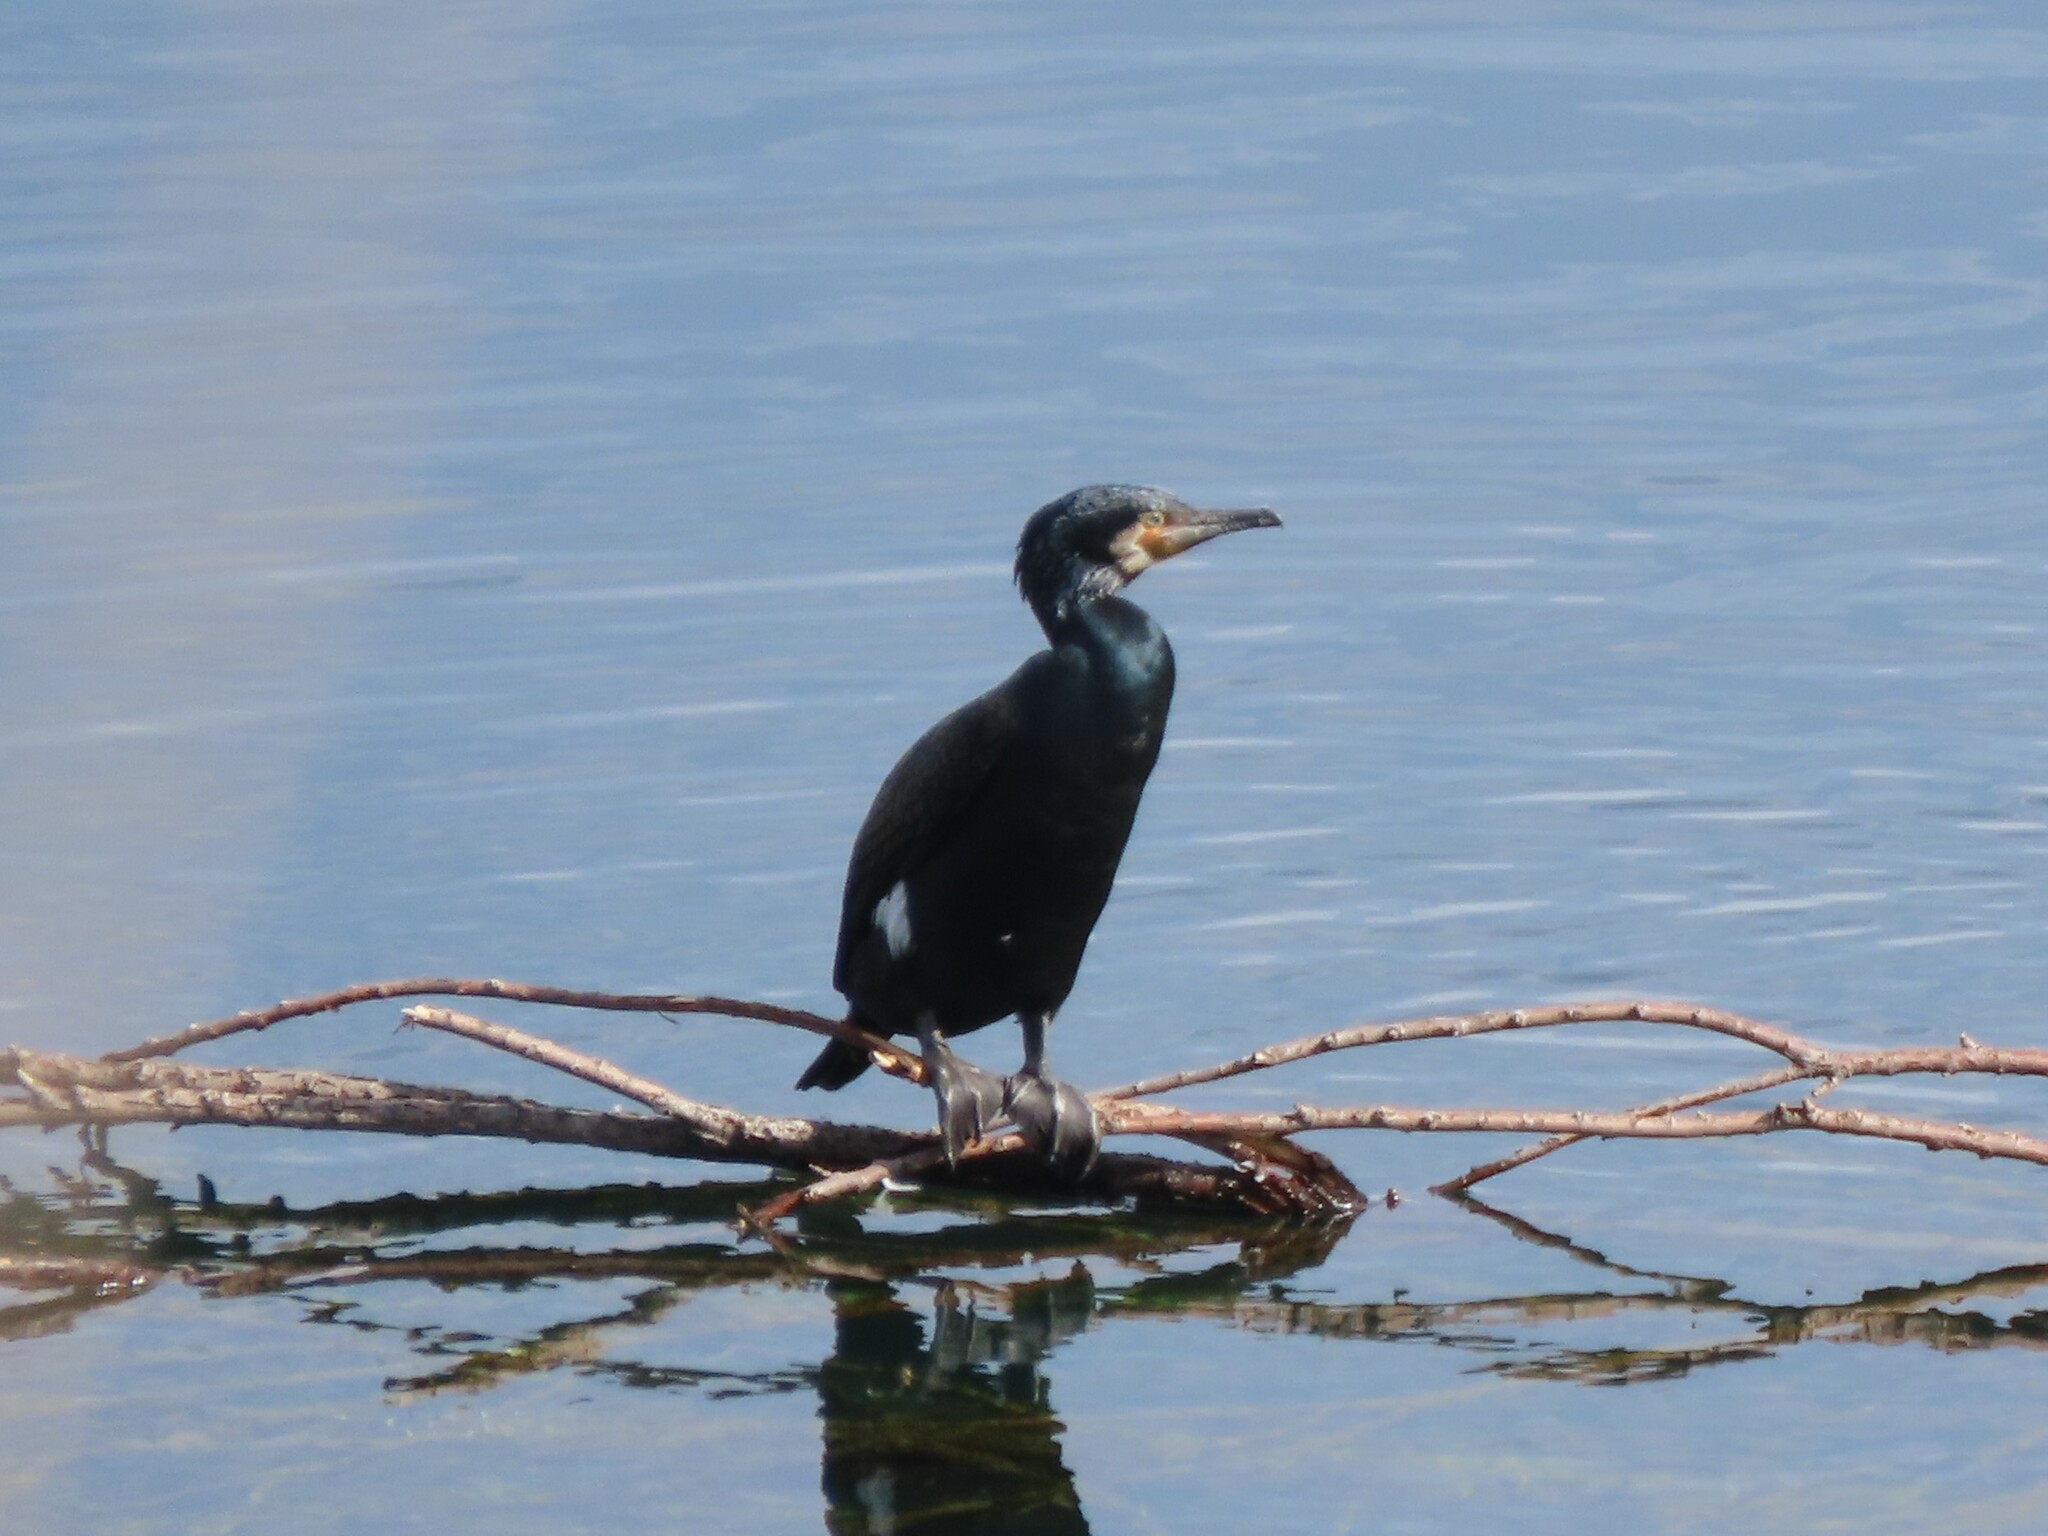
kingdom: Animalia
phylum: Chordata
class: Aves
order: Suliformes
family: Phalacrocoracidae
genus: Phalacrocorax
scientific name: Phalacrocorax carbo
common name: Great cormorant
